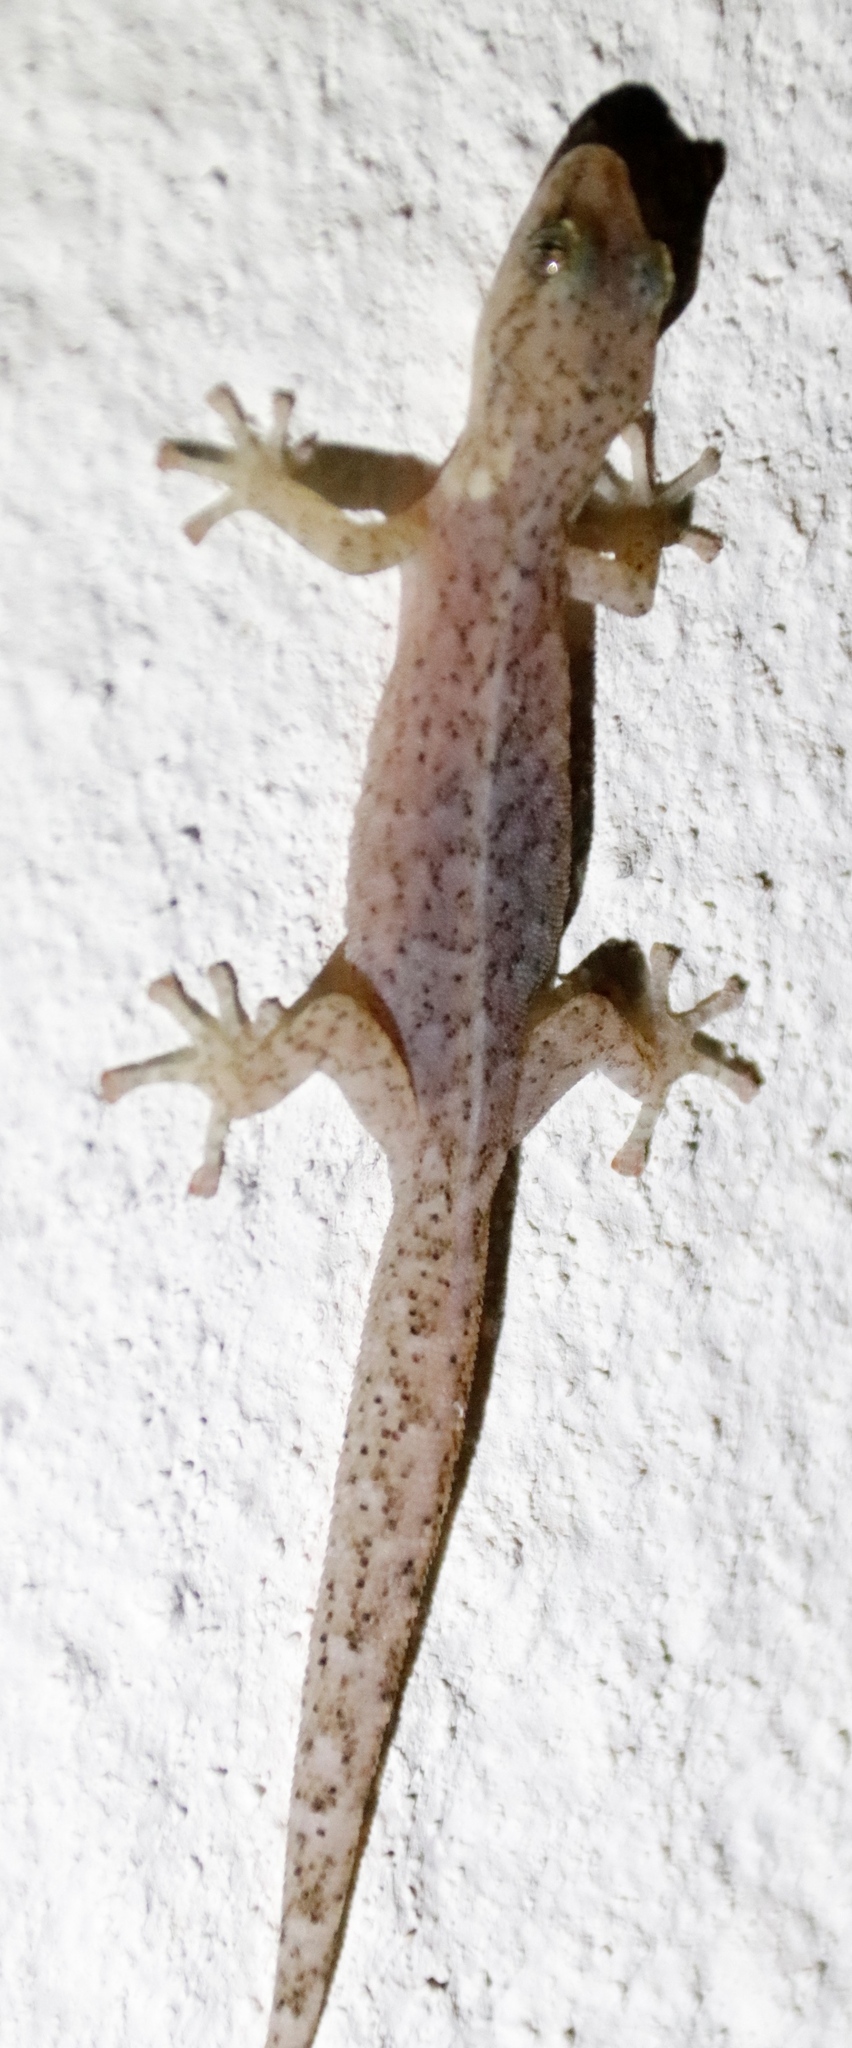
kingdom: Animalia
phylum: Chordata
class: Squamata
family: Gekkonidae
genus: Afrogecko
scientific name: Afrogecko porphyreus
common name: Marbled leaf-toed gecko
